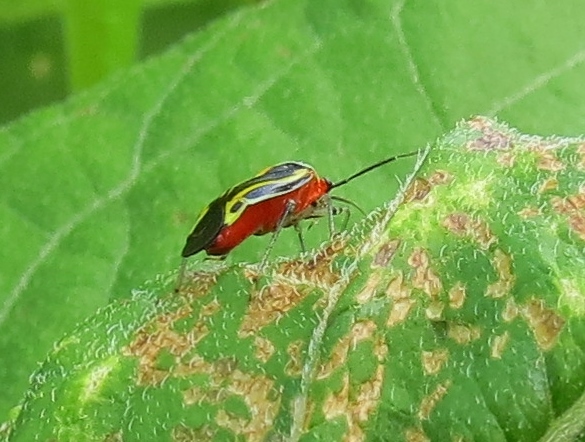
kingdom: Animalia
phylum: Arthropoda
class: Insecta
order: Hemiptera
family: Miridae
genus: Poecilocapsus
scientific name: Poecilocapsus lineatus
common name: Four-lined plant bug
